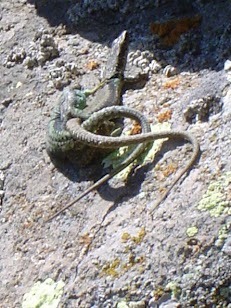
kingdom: Animalia
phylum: Chordata
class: Squamata
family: Lacertidae
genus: Darevskia
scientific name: Darevskia raddei
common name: Radde's lizard
